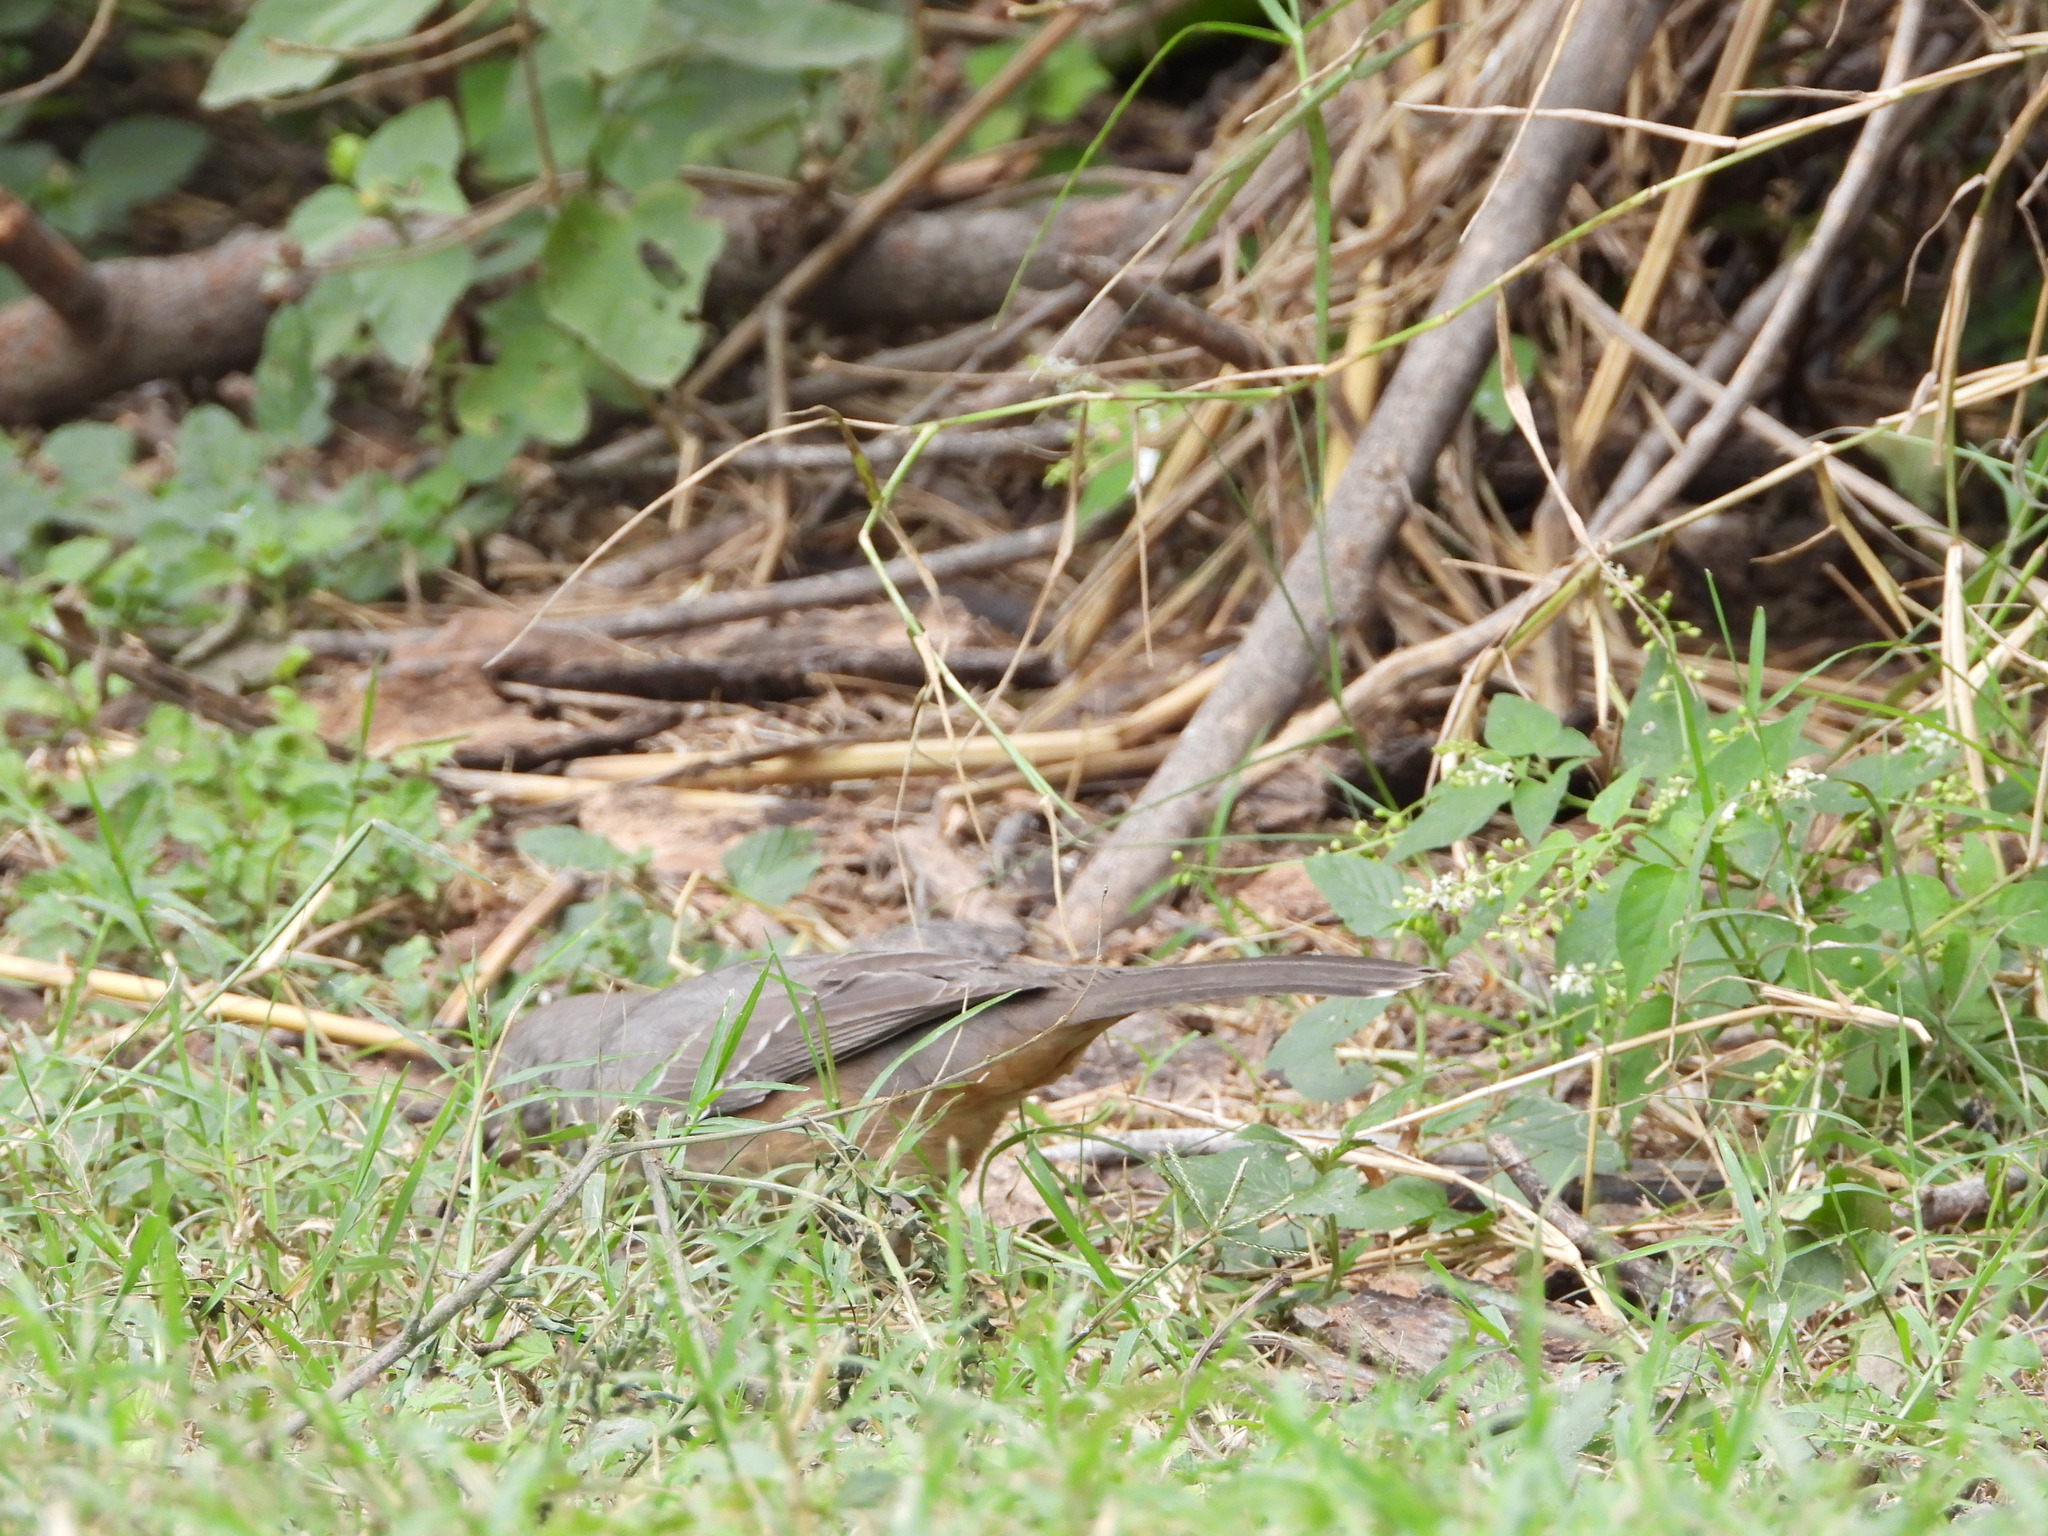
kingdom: Animalia
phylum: Chordata
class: Aves
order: Passeriformes
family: Mimidae
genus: Toxostoma
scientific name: Toxostoma curvirostre
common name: Curve-billed thrasher
